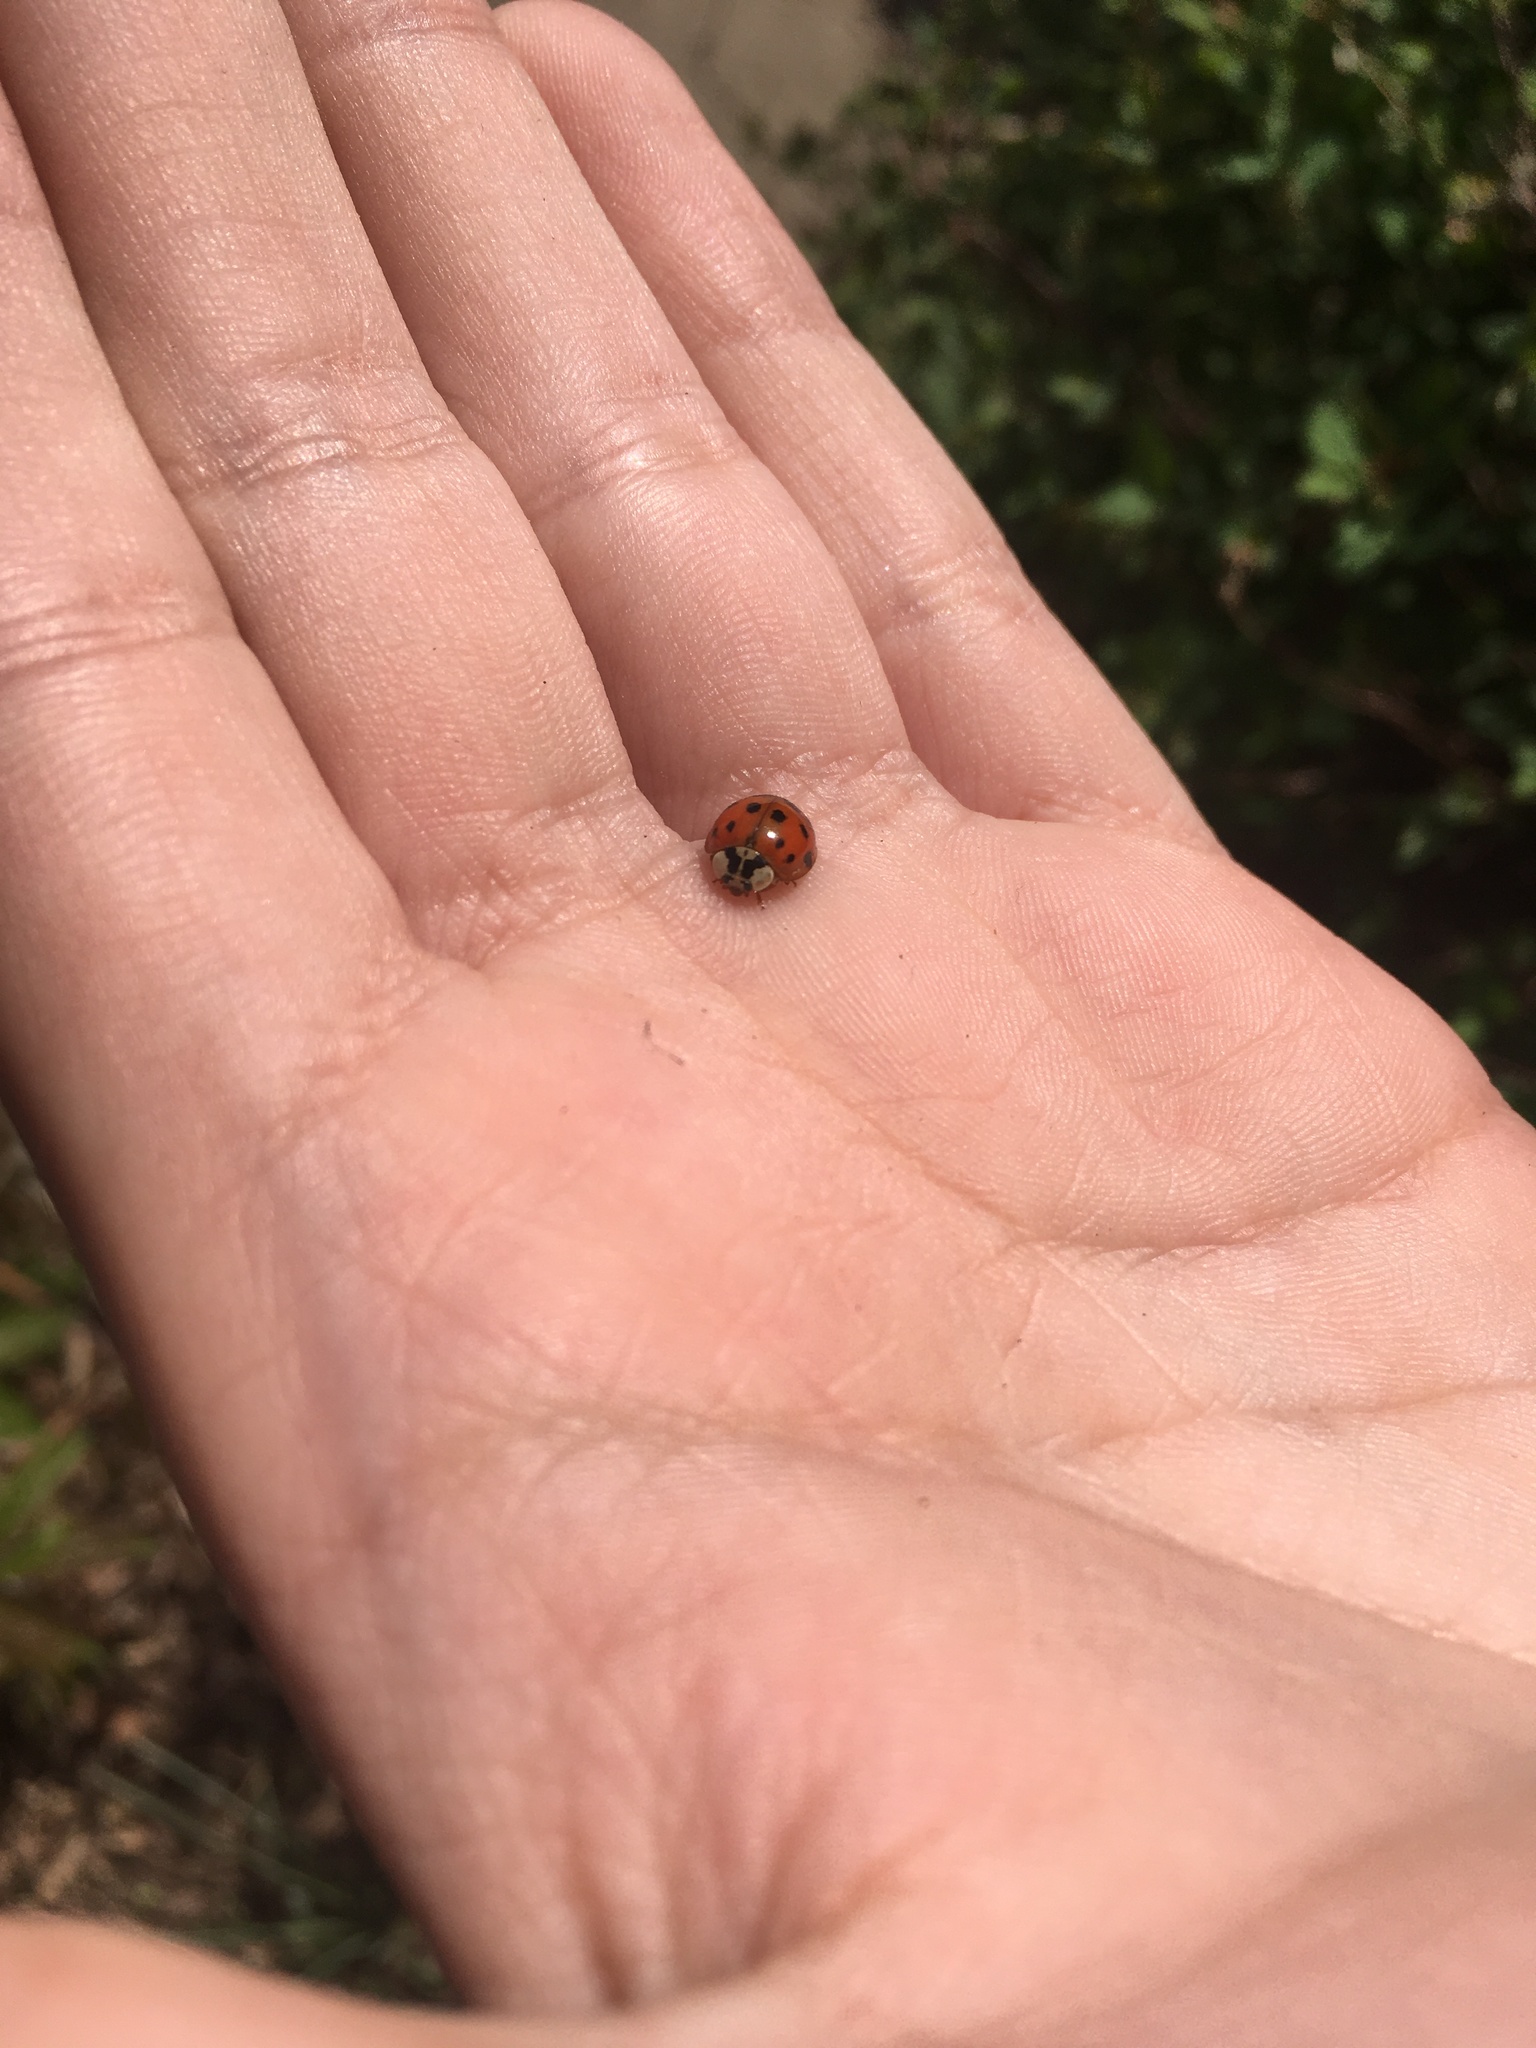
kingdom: Animalia
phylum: Arthropoda
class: Insecta
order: Coleoptera
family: Coccinellidae
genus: Harmonia
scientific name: Harmonia axyridis
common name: Harlequin ladybird
